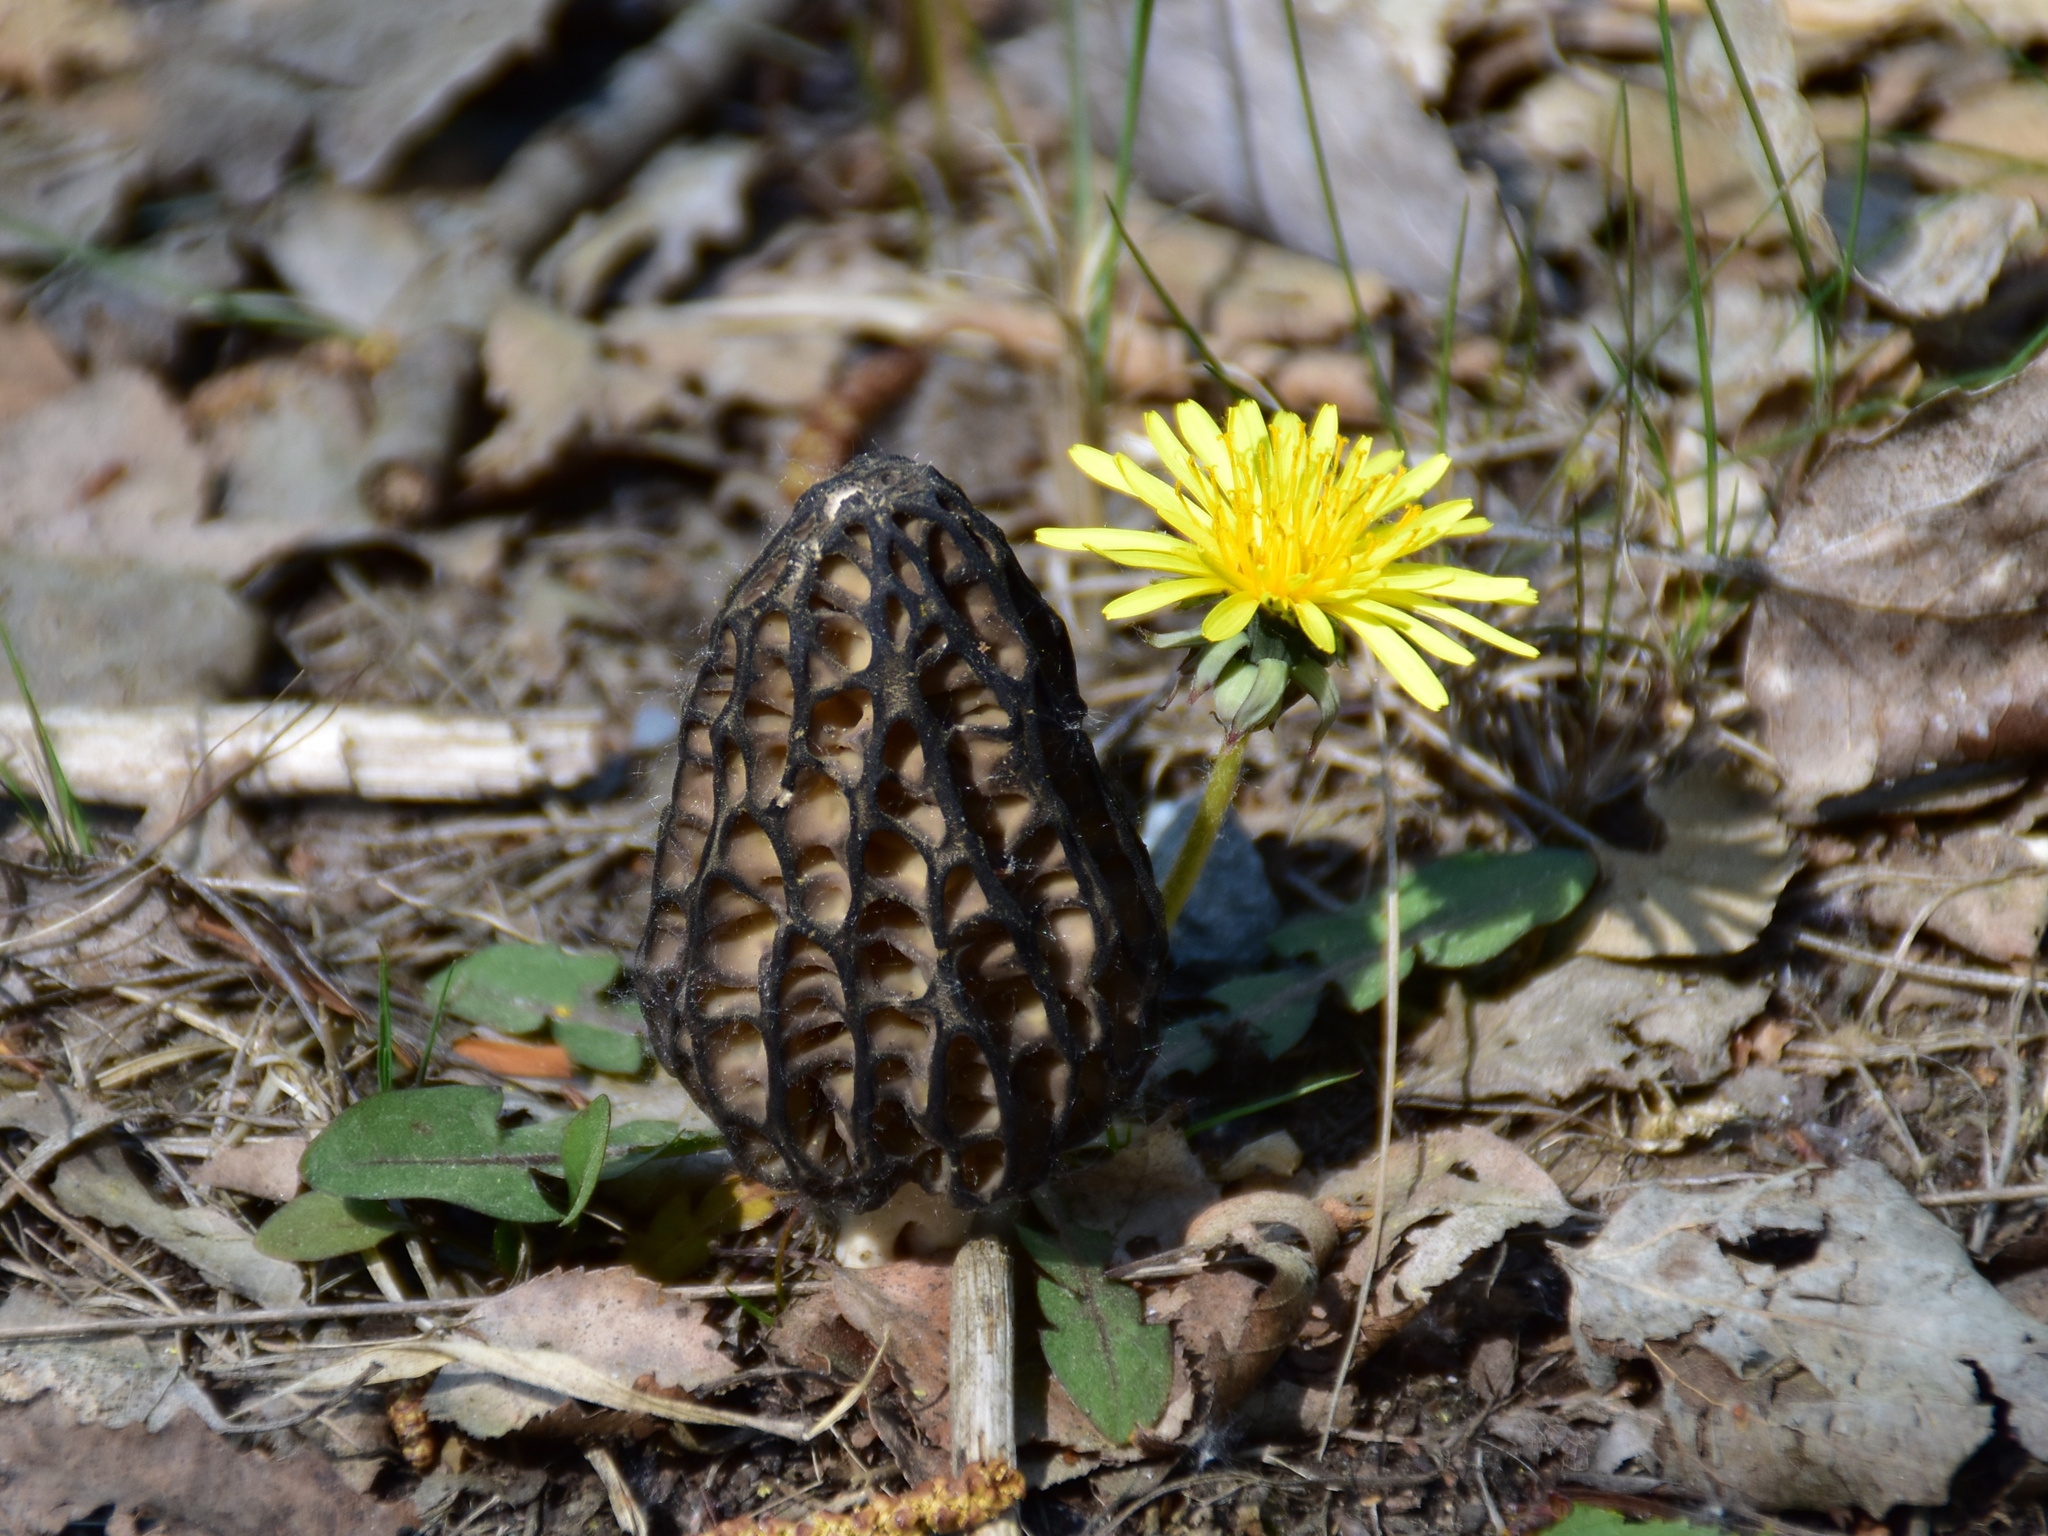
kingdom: Fungi
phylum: Ascomycota
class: Pezizomycetes
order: Pezizales
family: Morchellaceae
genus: Morchella
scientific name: Morchella
